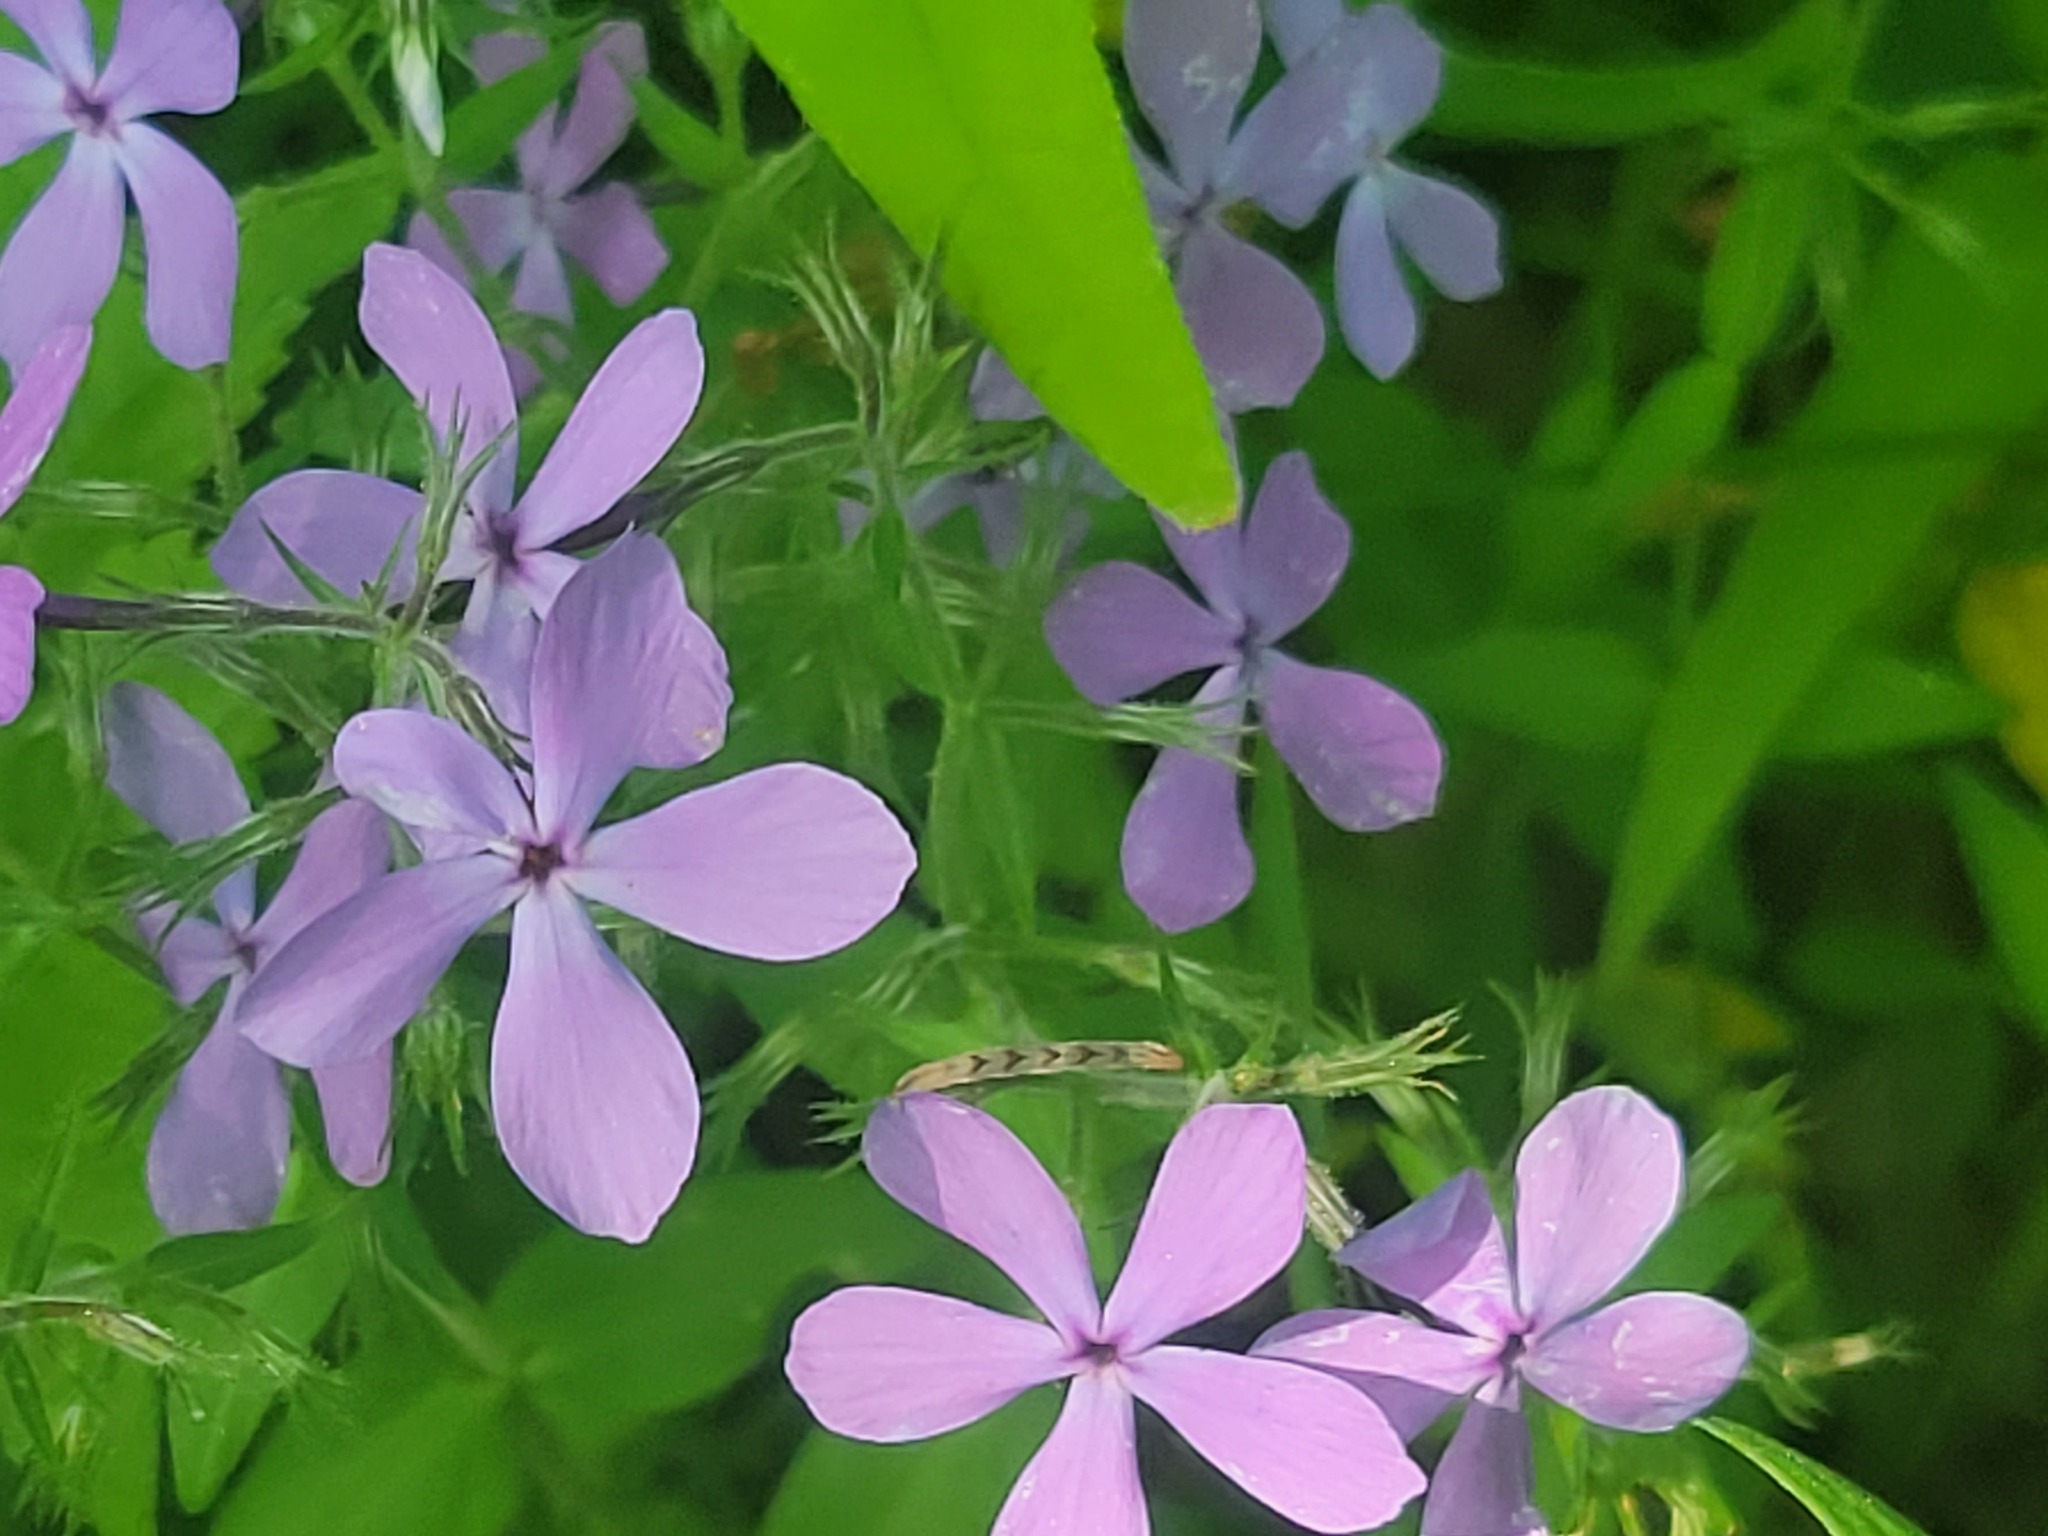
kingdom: Plantae
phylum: Tracheophyta
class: Magnoliopsida
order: Ericales
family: Polemoniaceae
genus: Phlox
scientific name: Phlox divaricata
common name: Blue phlox
